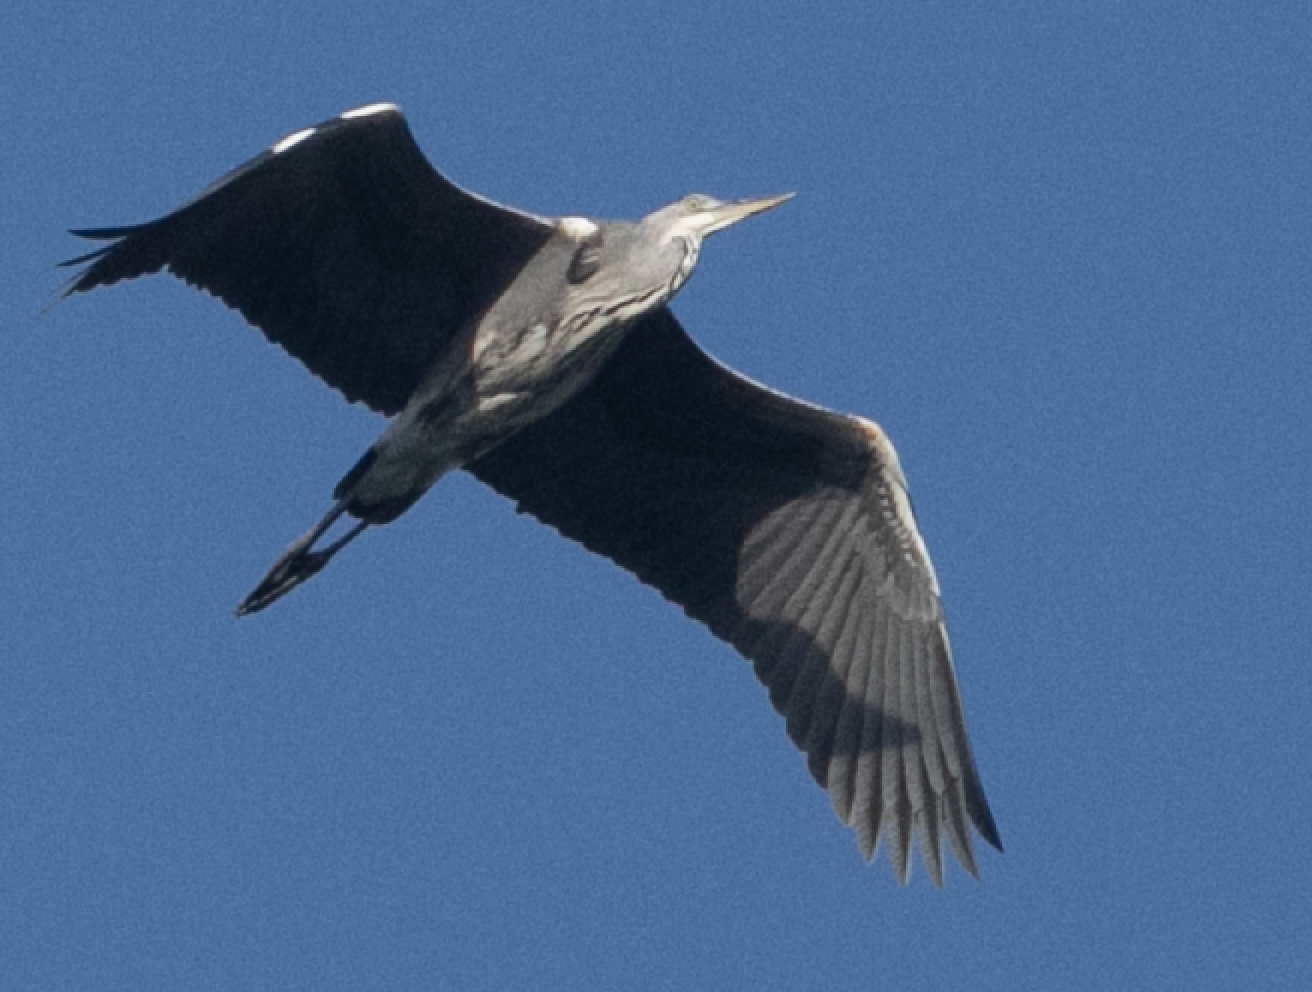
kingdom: Animalia
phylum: Chordata
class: Aves
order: Pelecaniformes
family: Ardeidae
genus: Ardea
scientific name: Ardea cinerea
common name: Grey heron
